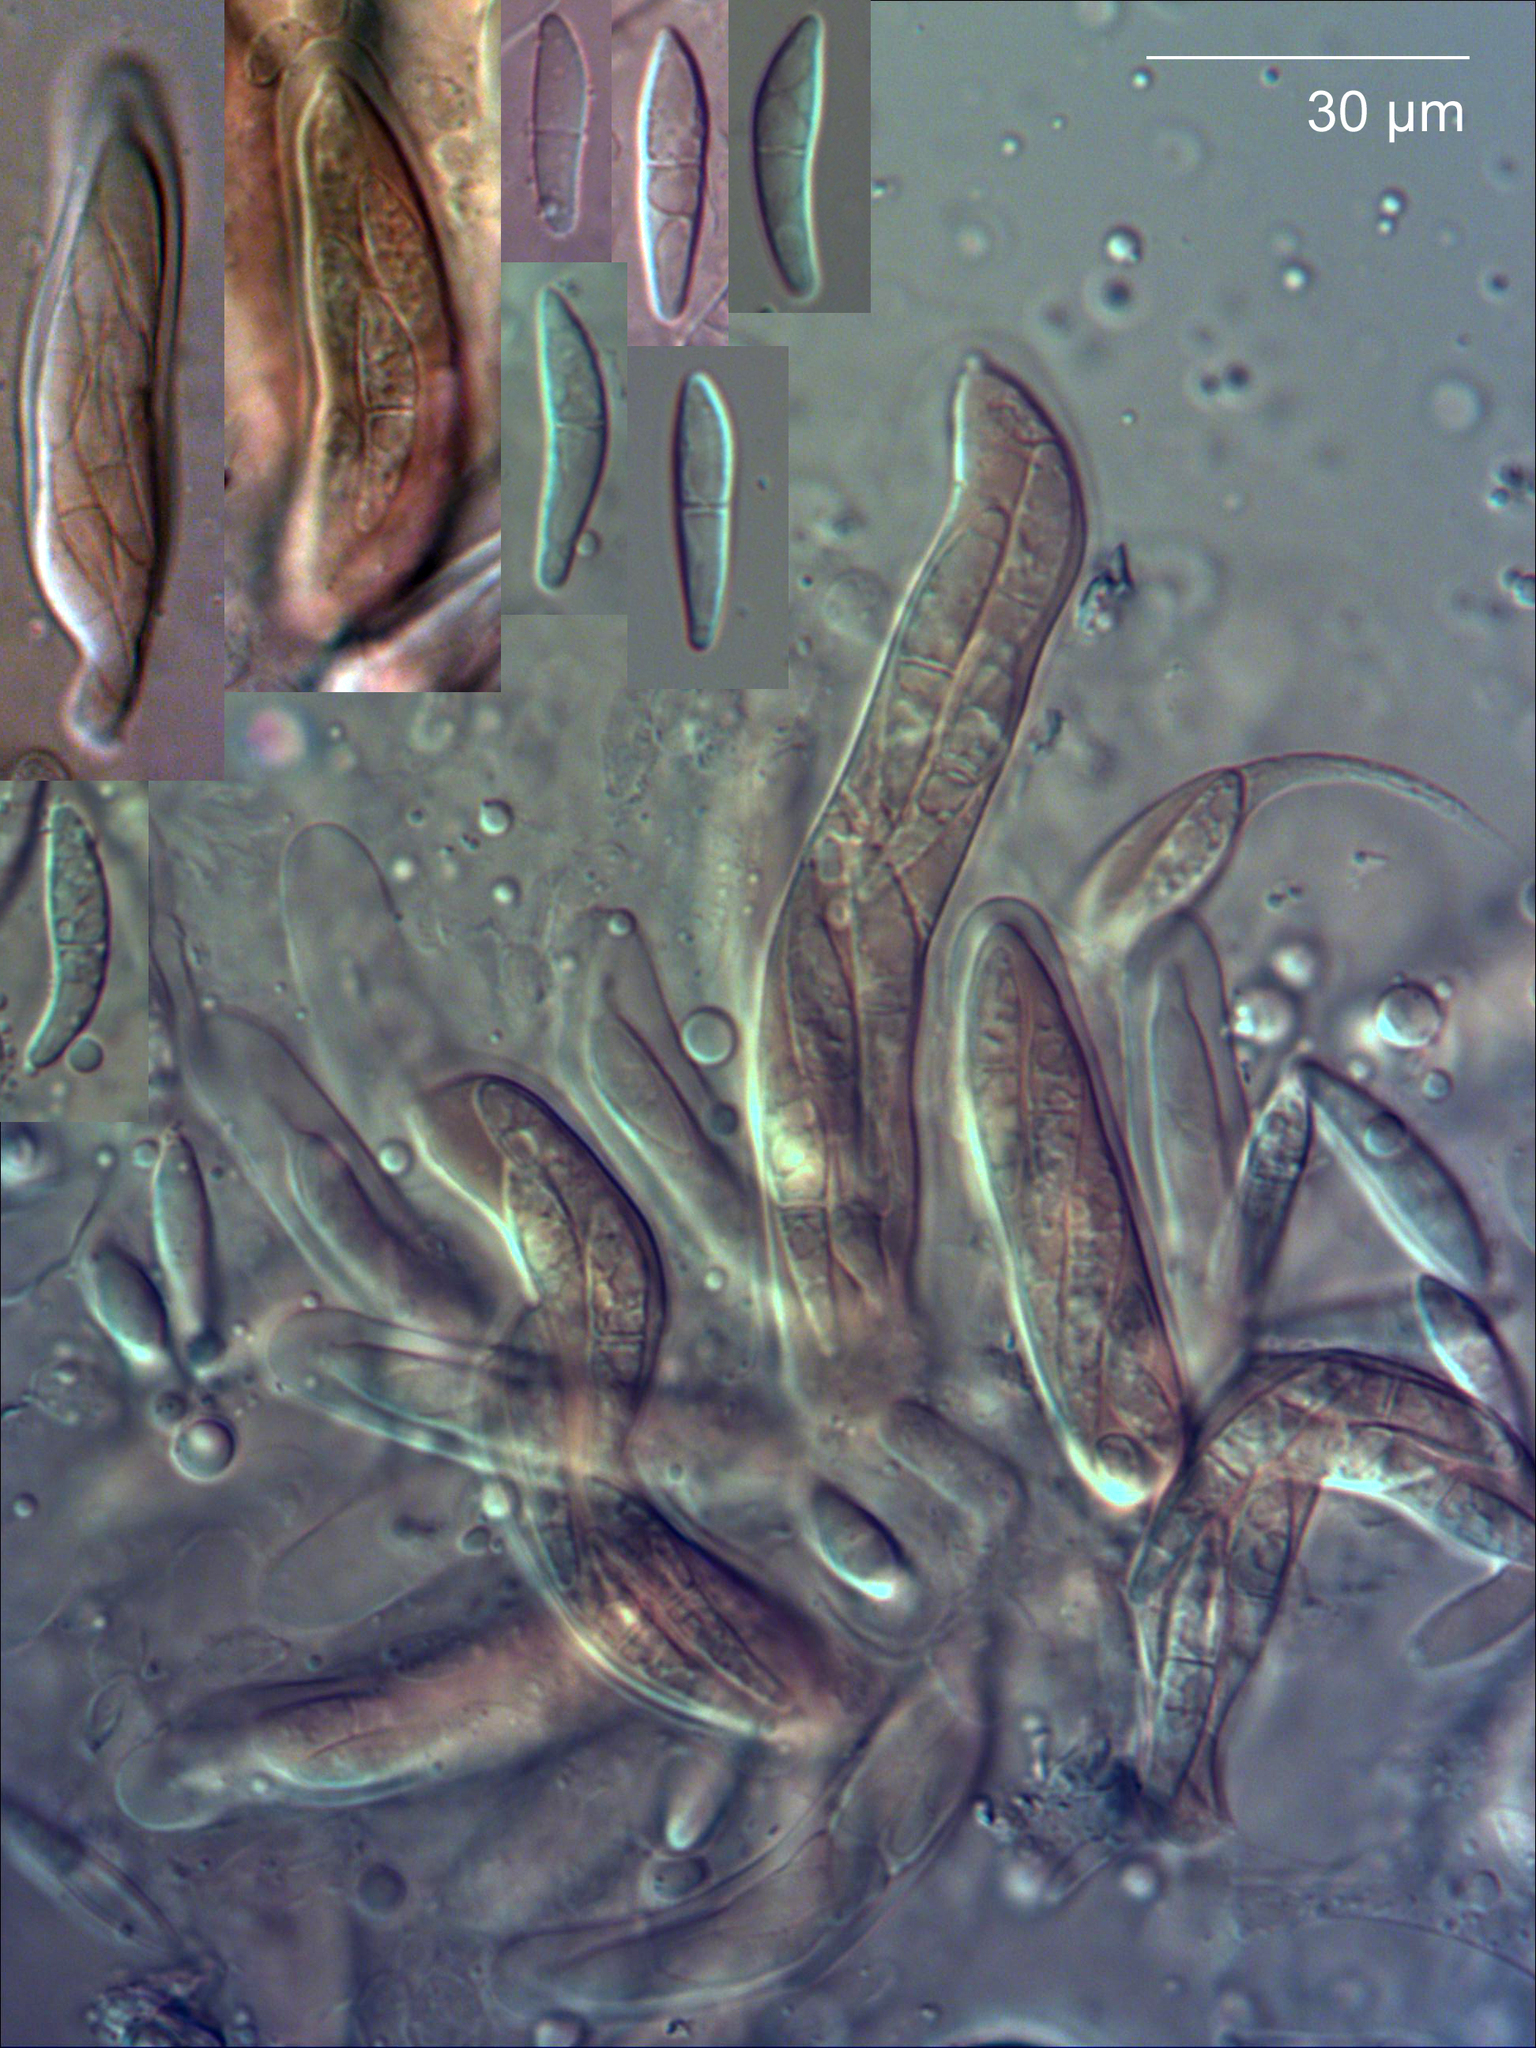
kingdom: Fungi
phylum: Ascomycota
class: Dothideomycetes
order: Botryosphaeriales
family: Planistromellaceae
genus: Diplochorella
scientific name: Diplochorella colensoi
